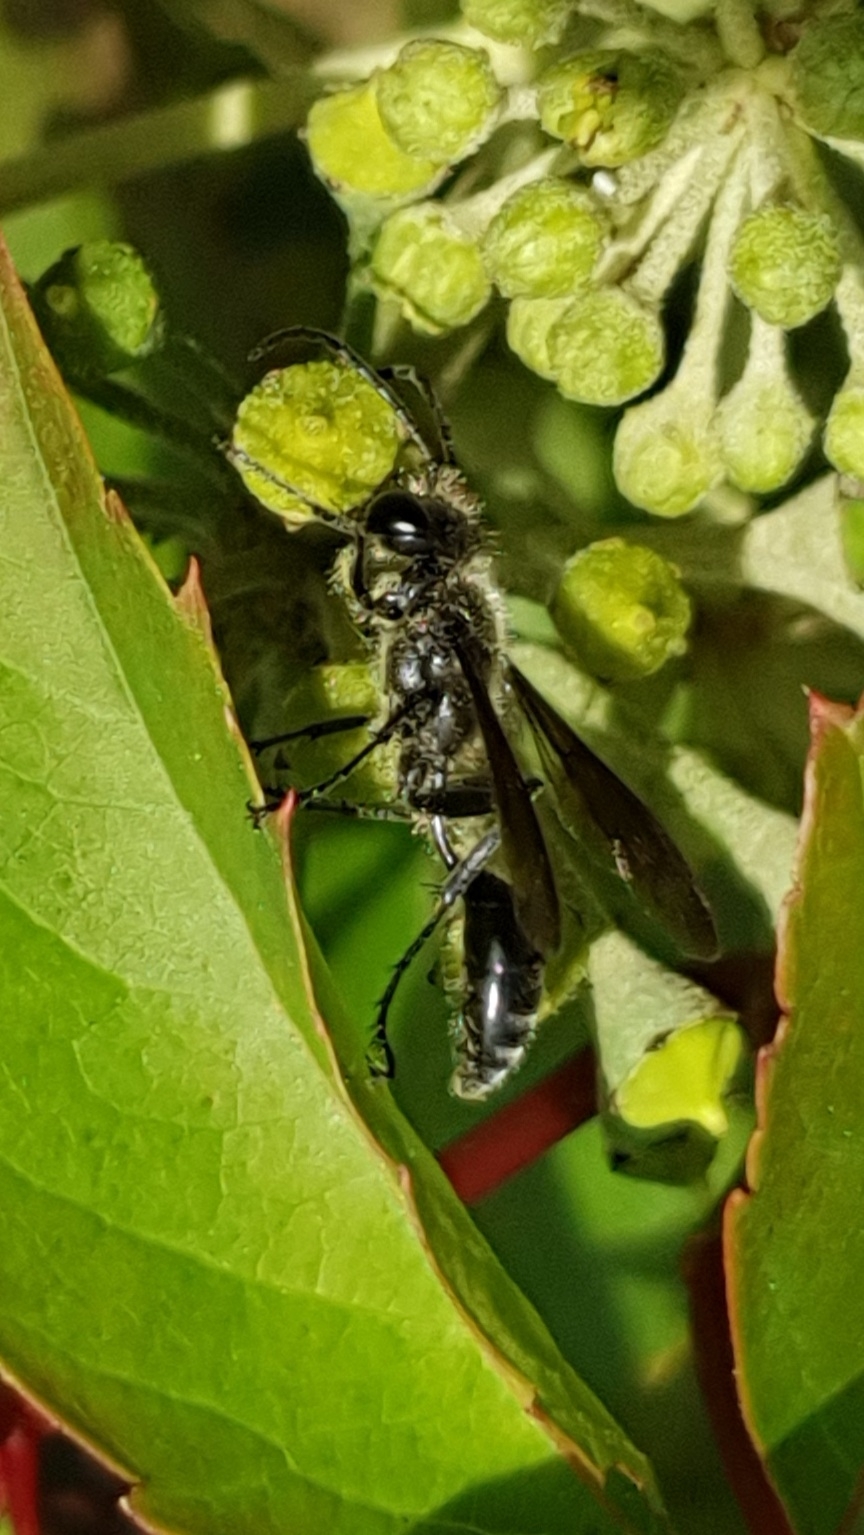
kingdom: Animalia
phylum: Arthropoda
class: Insecta
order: Hymenoptera
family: Sphecidae
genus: Isodontia
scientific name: Isodontia mexicana
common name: Mud dauber
